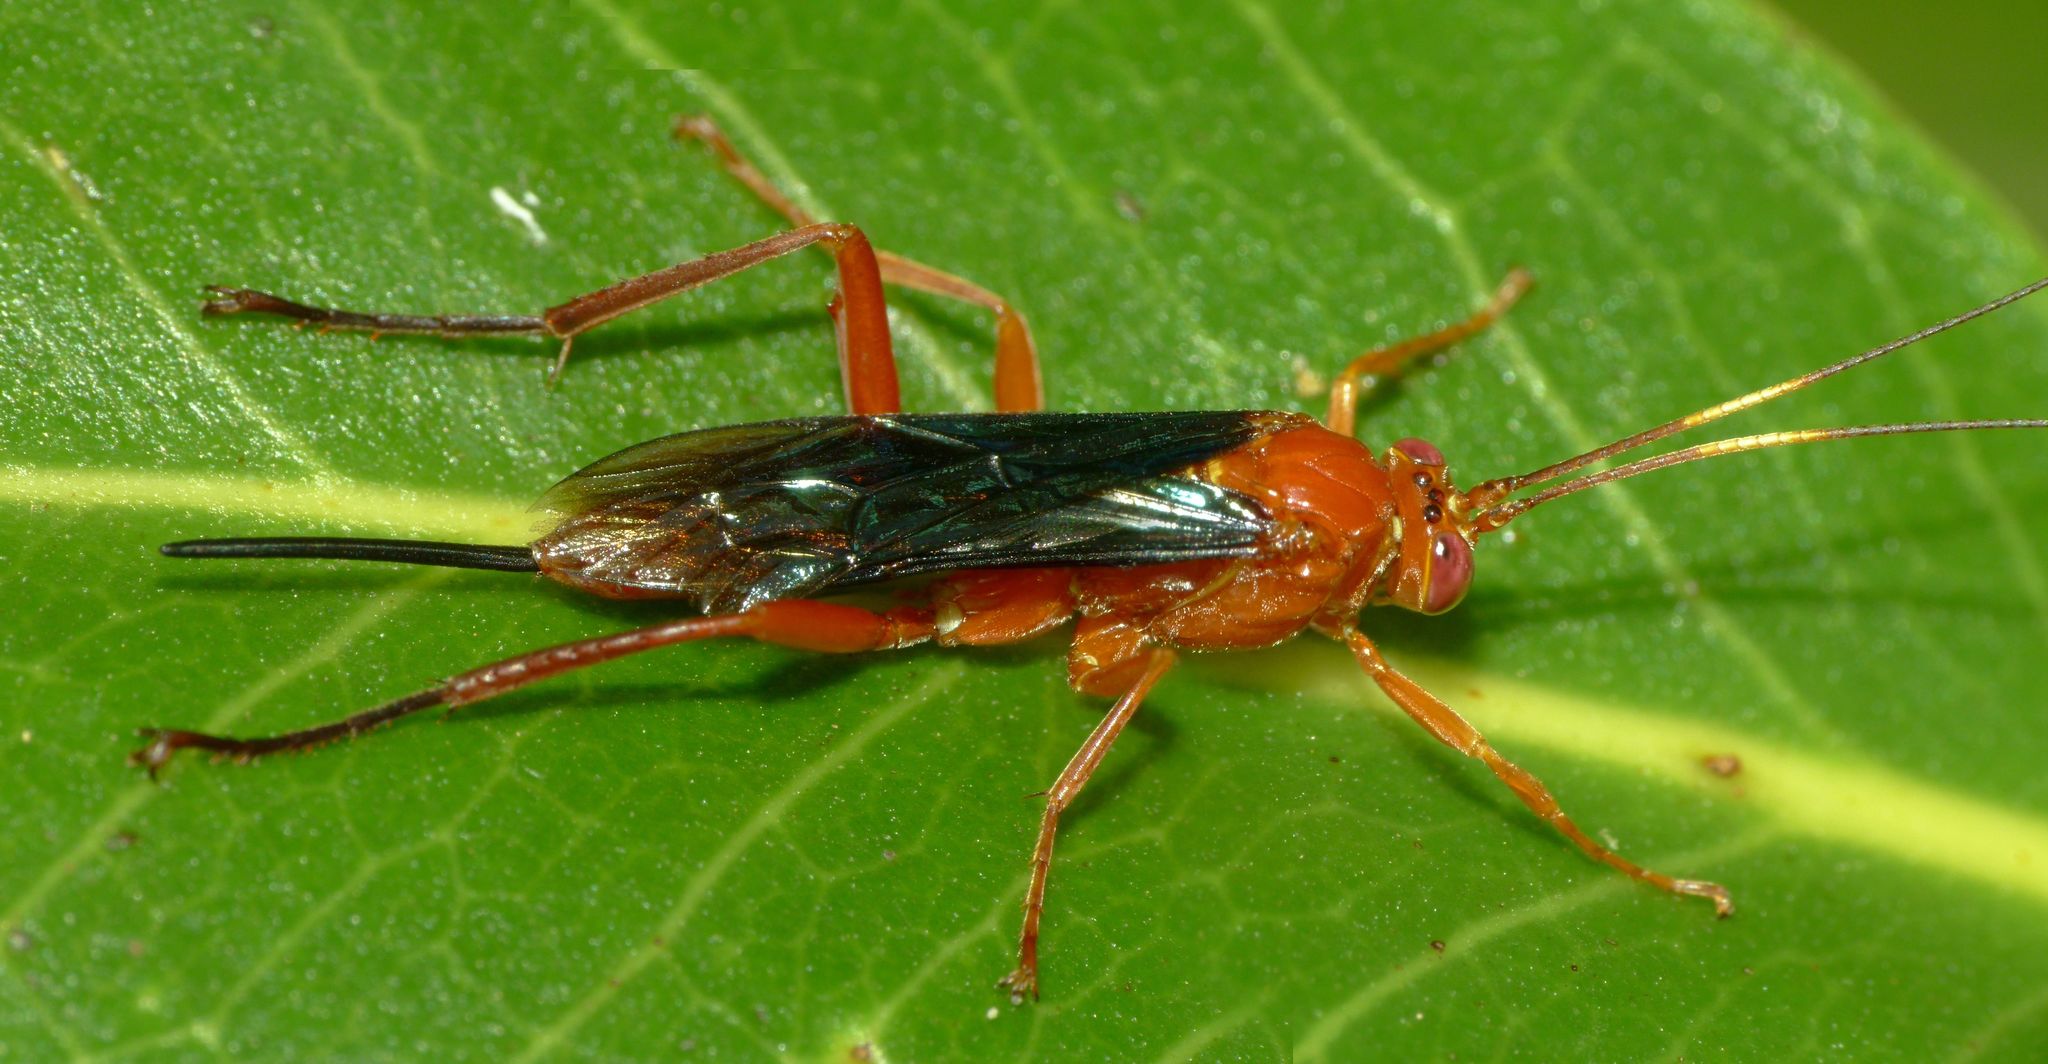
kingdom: Animalia
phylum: Arthropoda
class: Insecta
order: Hymenoptera
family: Ichneumonidae
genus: Lissopimpla
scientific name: Lissopimpla excelsa
